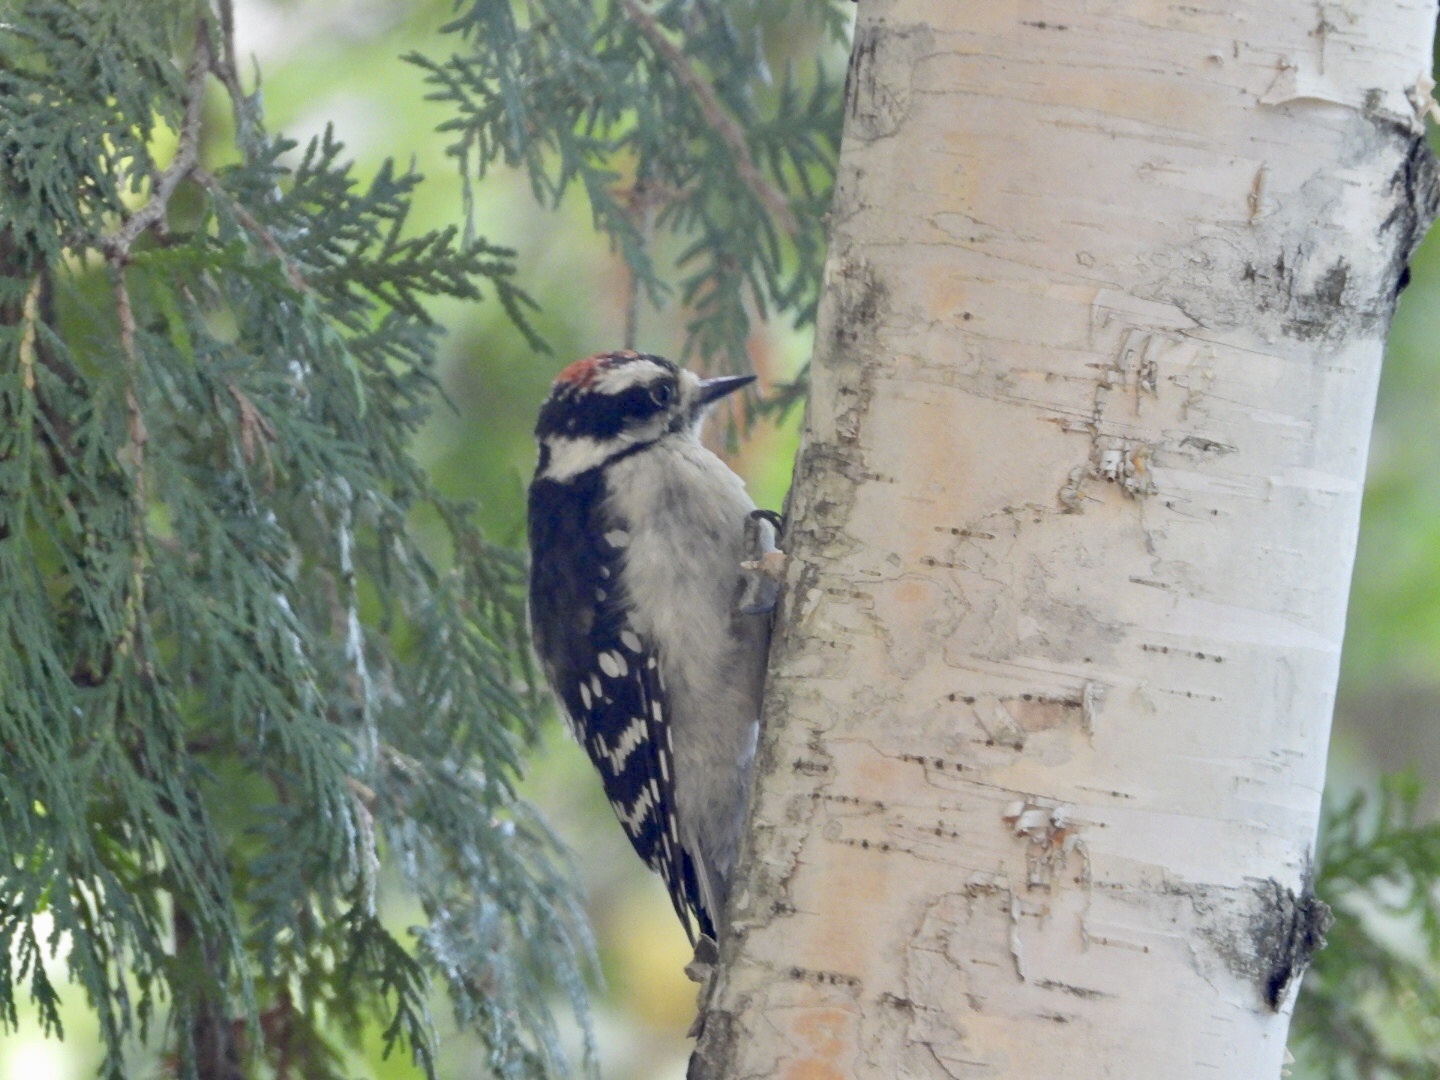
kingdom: Animalia
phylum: Chordata
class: Aves
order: Piciformes
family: Picidae
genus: Dryobates
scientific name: Dryobates pubescens
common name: Downy woodpecker
